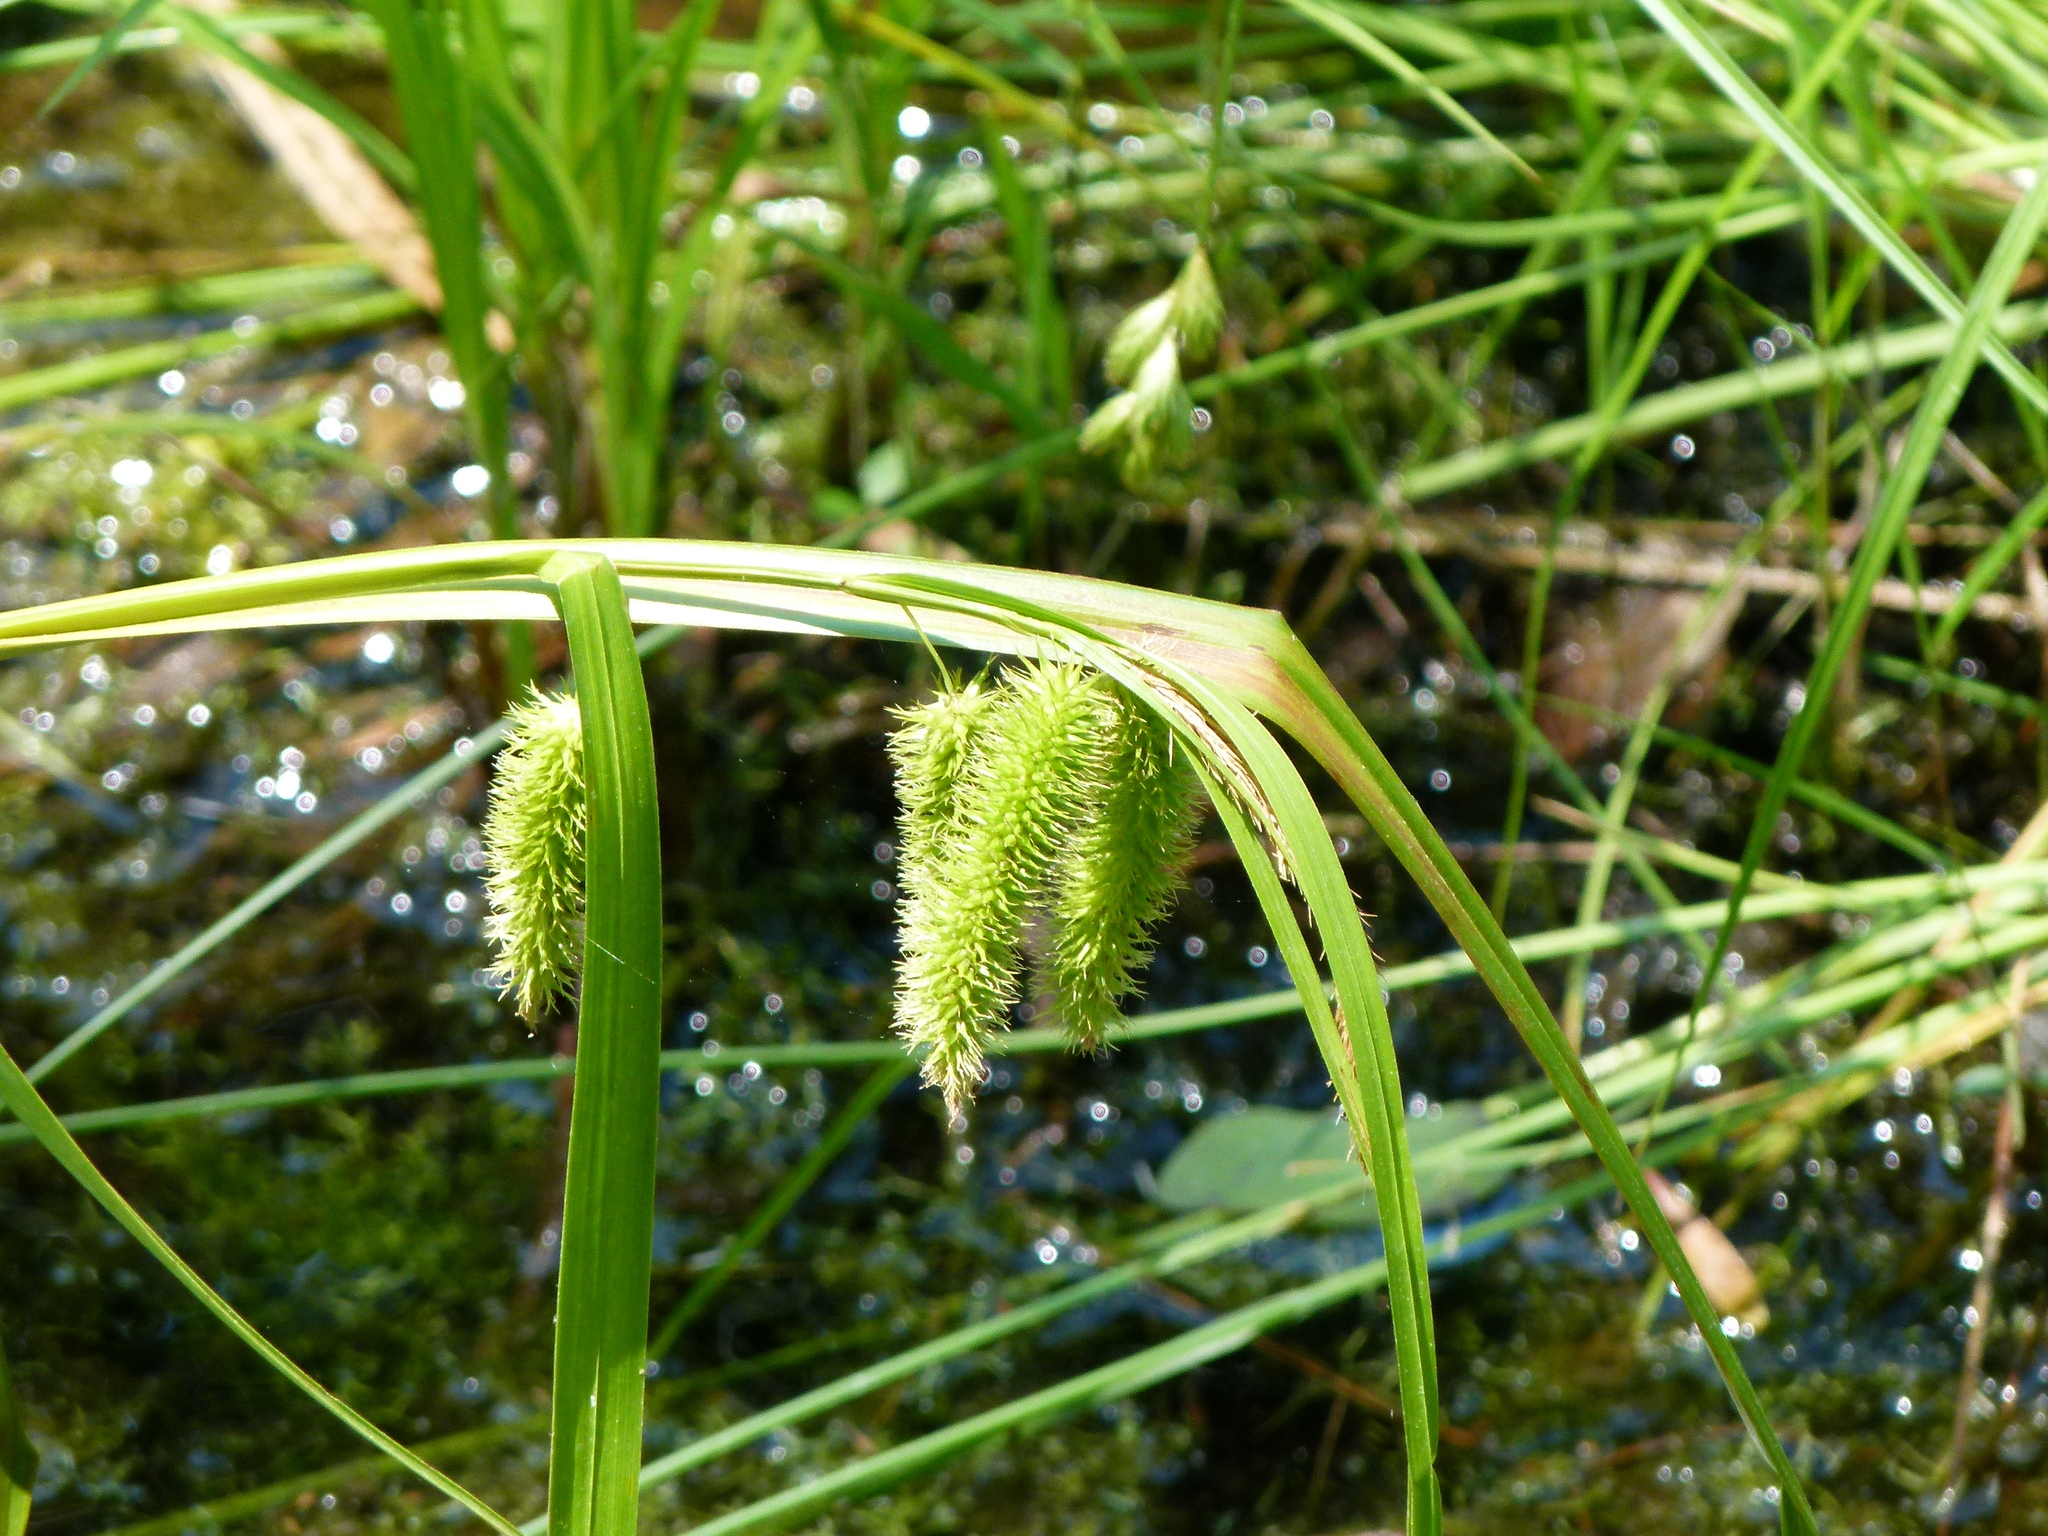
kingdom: Plantae
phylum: Tracheophyta
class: Liliopsida
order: Poales
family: Cyperaceae
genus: Carex
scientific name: Carex comosa
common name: Bristly sedge
